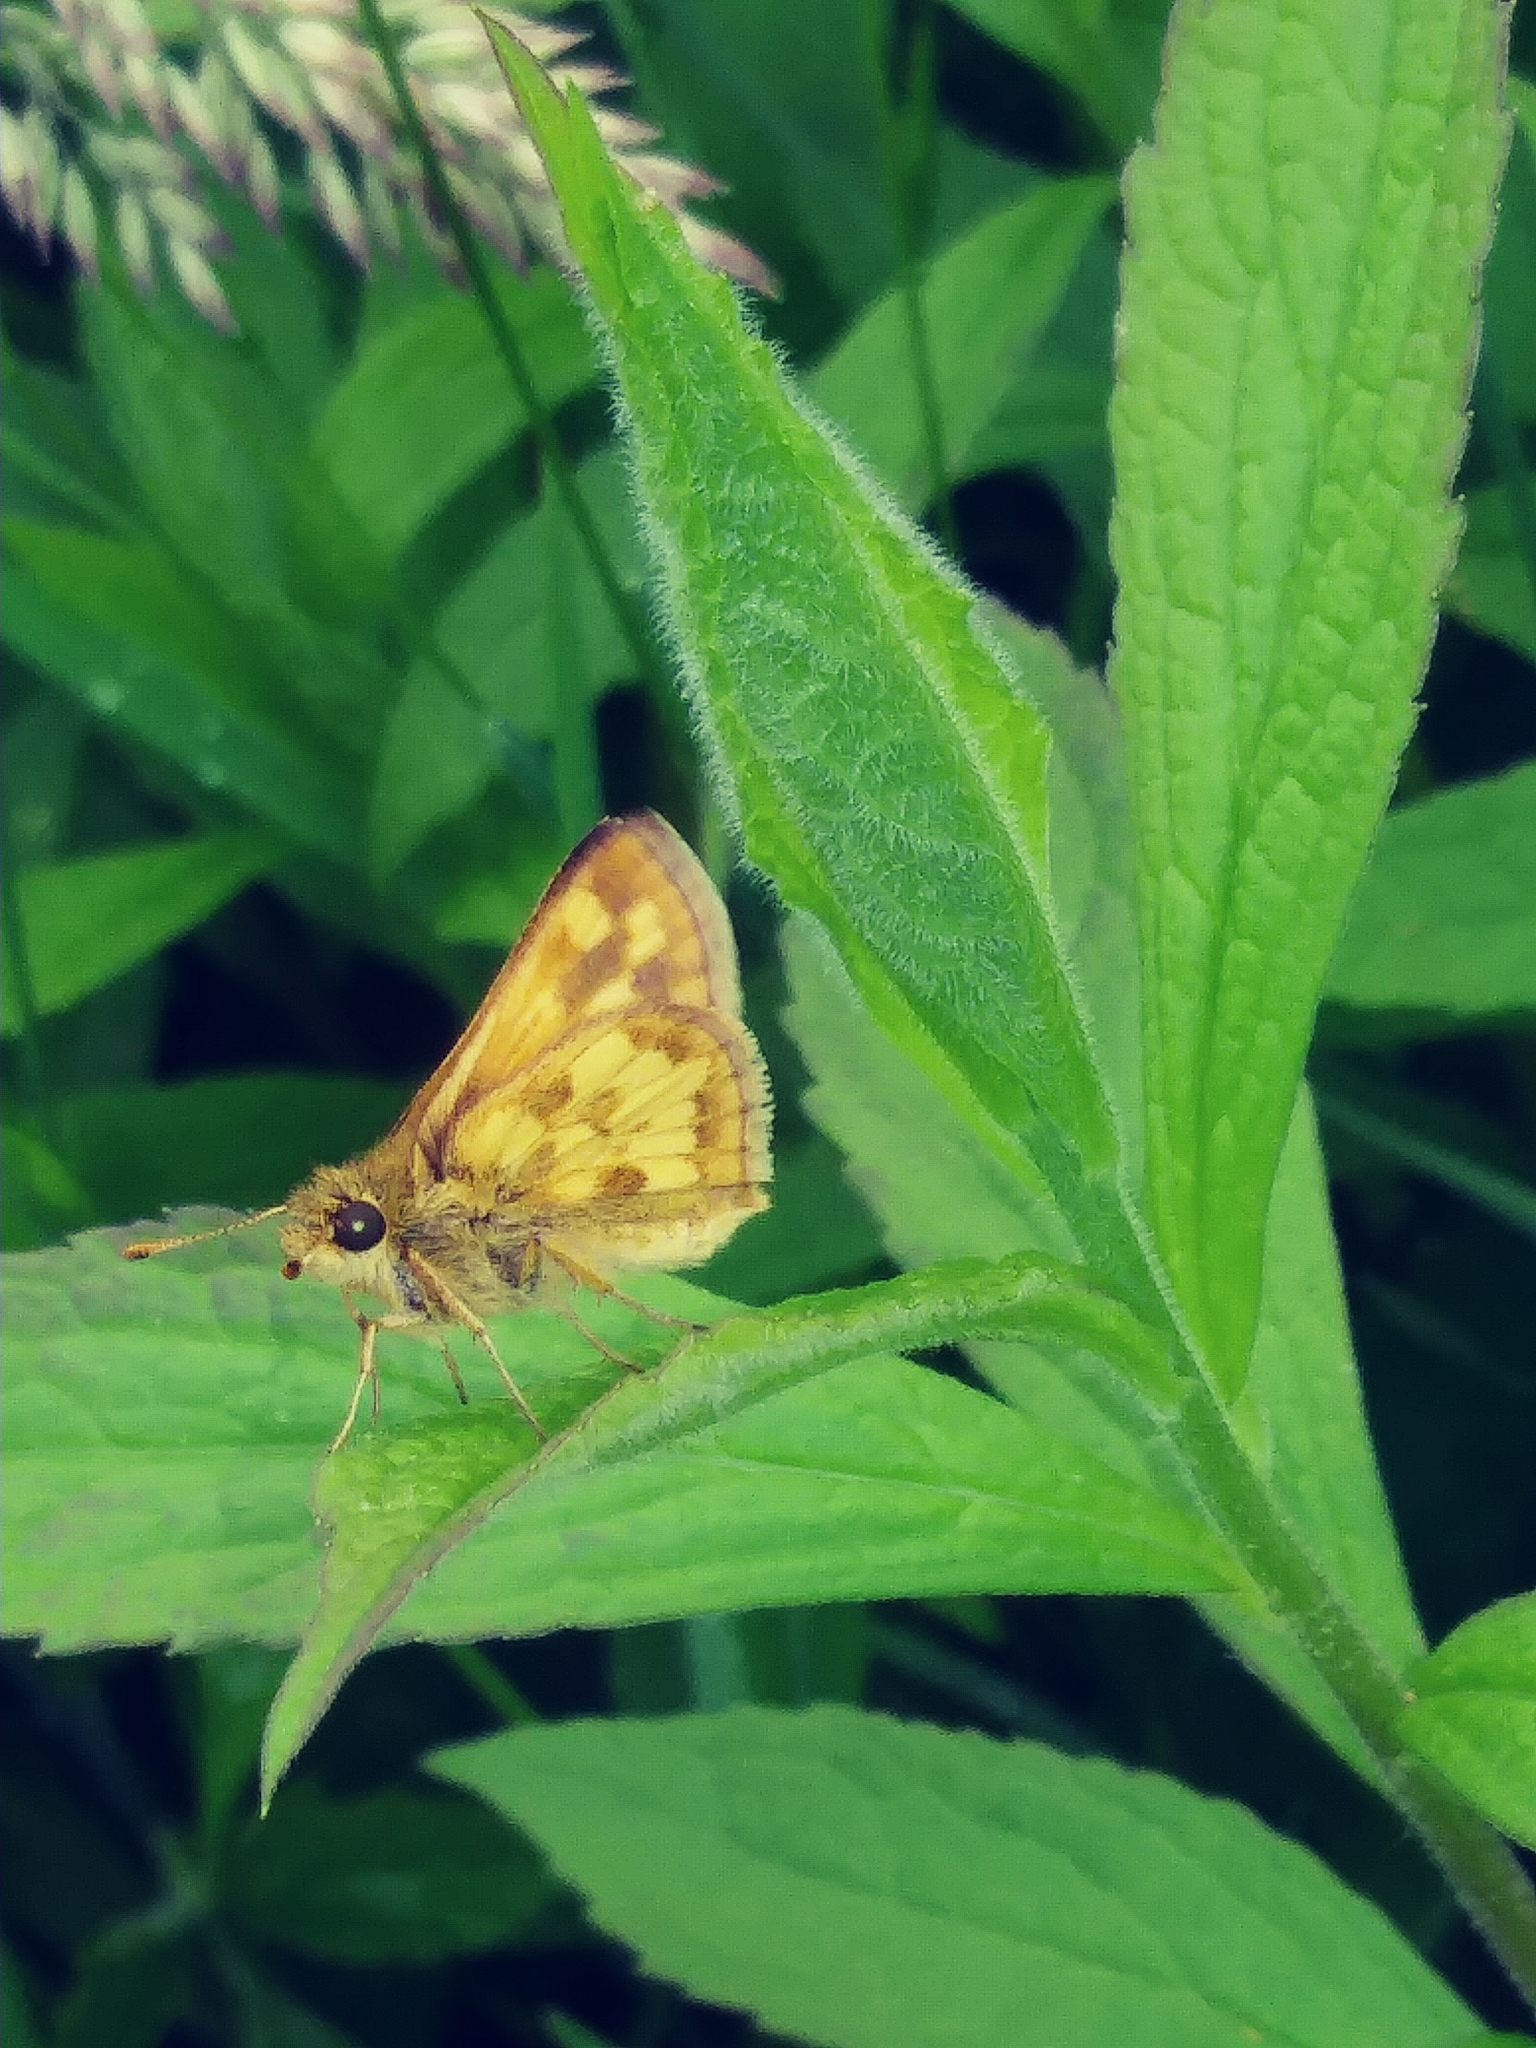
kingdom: Animalia
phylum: Arthropoda
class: Insecta
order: Lepidoptera
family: Hesperiidae
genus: Polites
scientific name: Polites coras
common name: Peck's skipper
